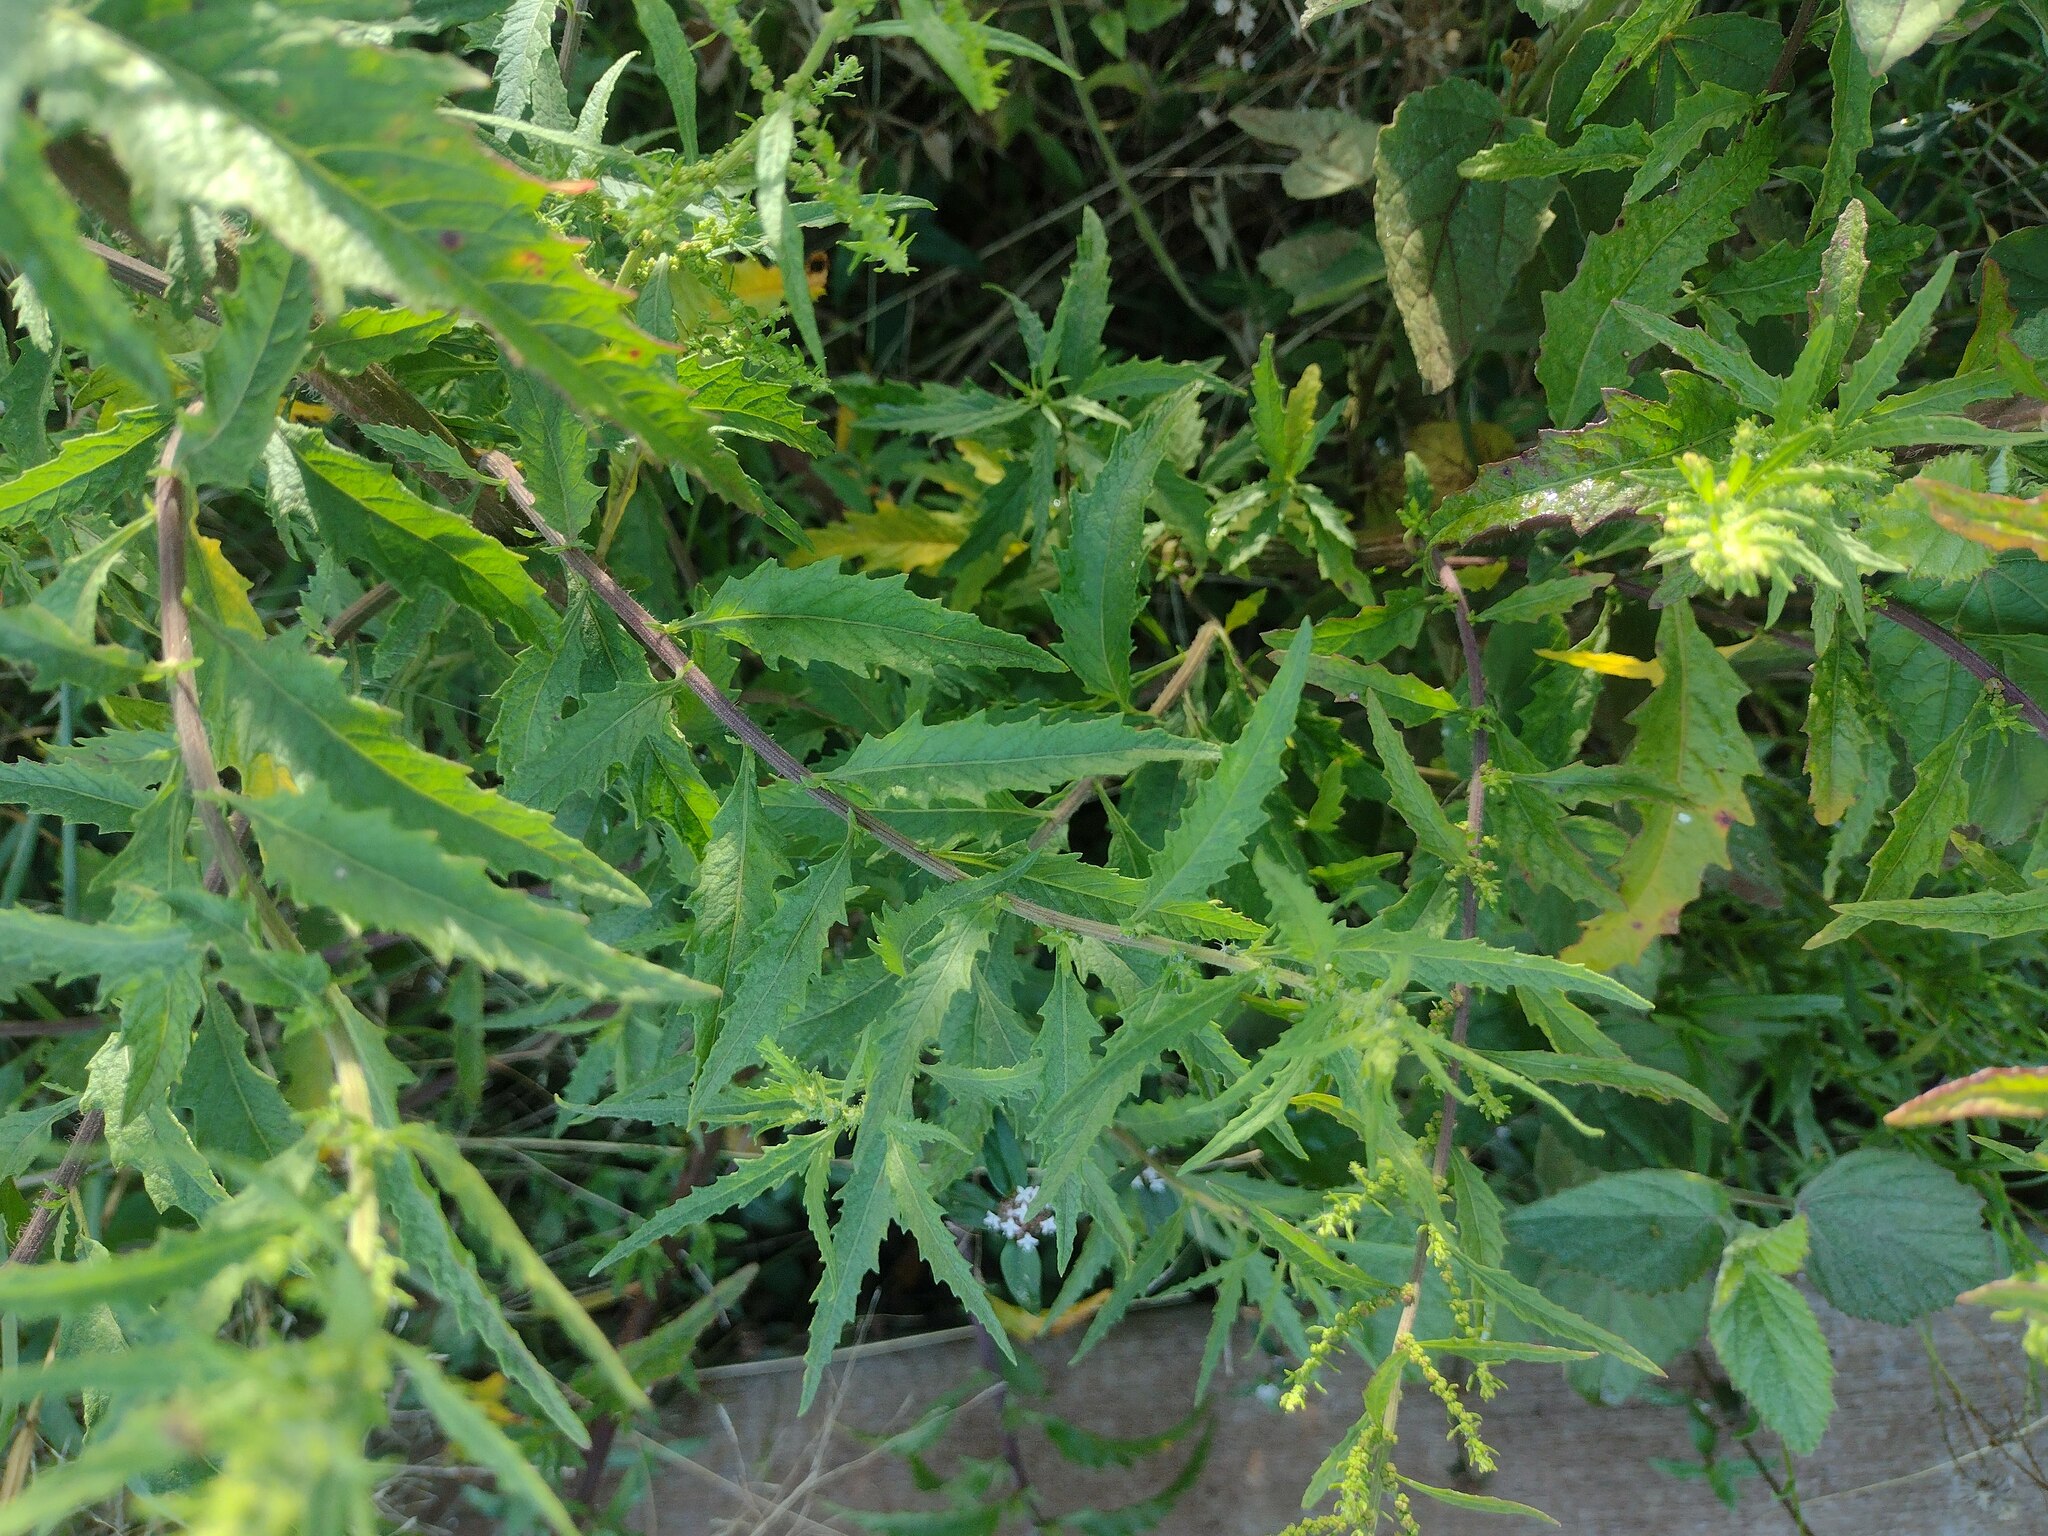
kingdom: Plantae
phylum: Tracheophyta
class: Magnoliopsida
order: Caryophyllales
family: Amaranthaceae
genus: Dysphania
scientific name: Dysphania ambrosioides
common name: Wormseed
